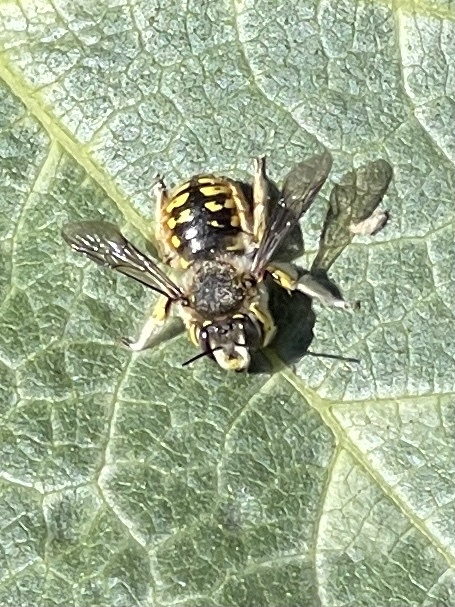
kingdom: Animalia
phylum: Arthropoda
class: Insecta
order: Hymenoptera
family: Megachilidae
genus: Anthidium
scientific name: Anthidium manicatum
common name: Wool carder bee
